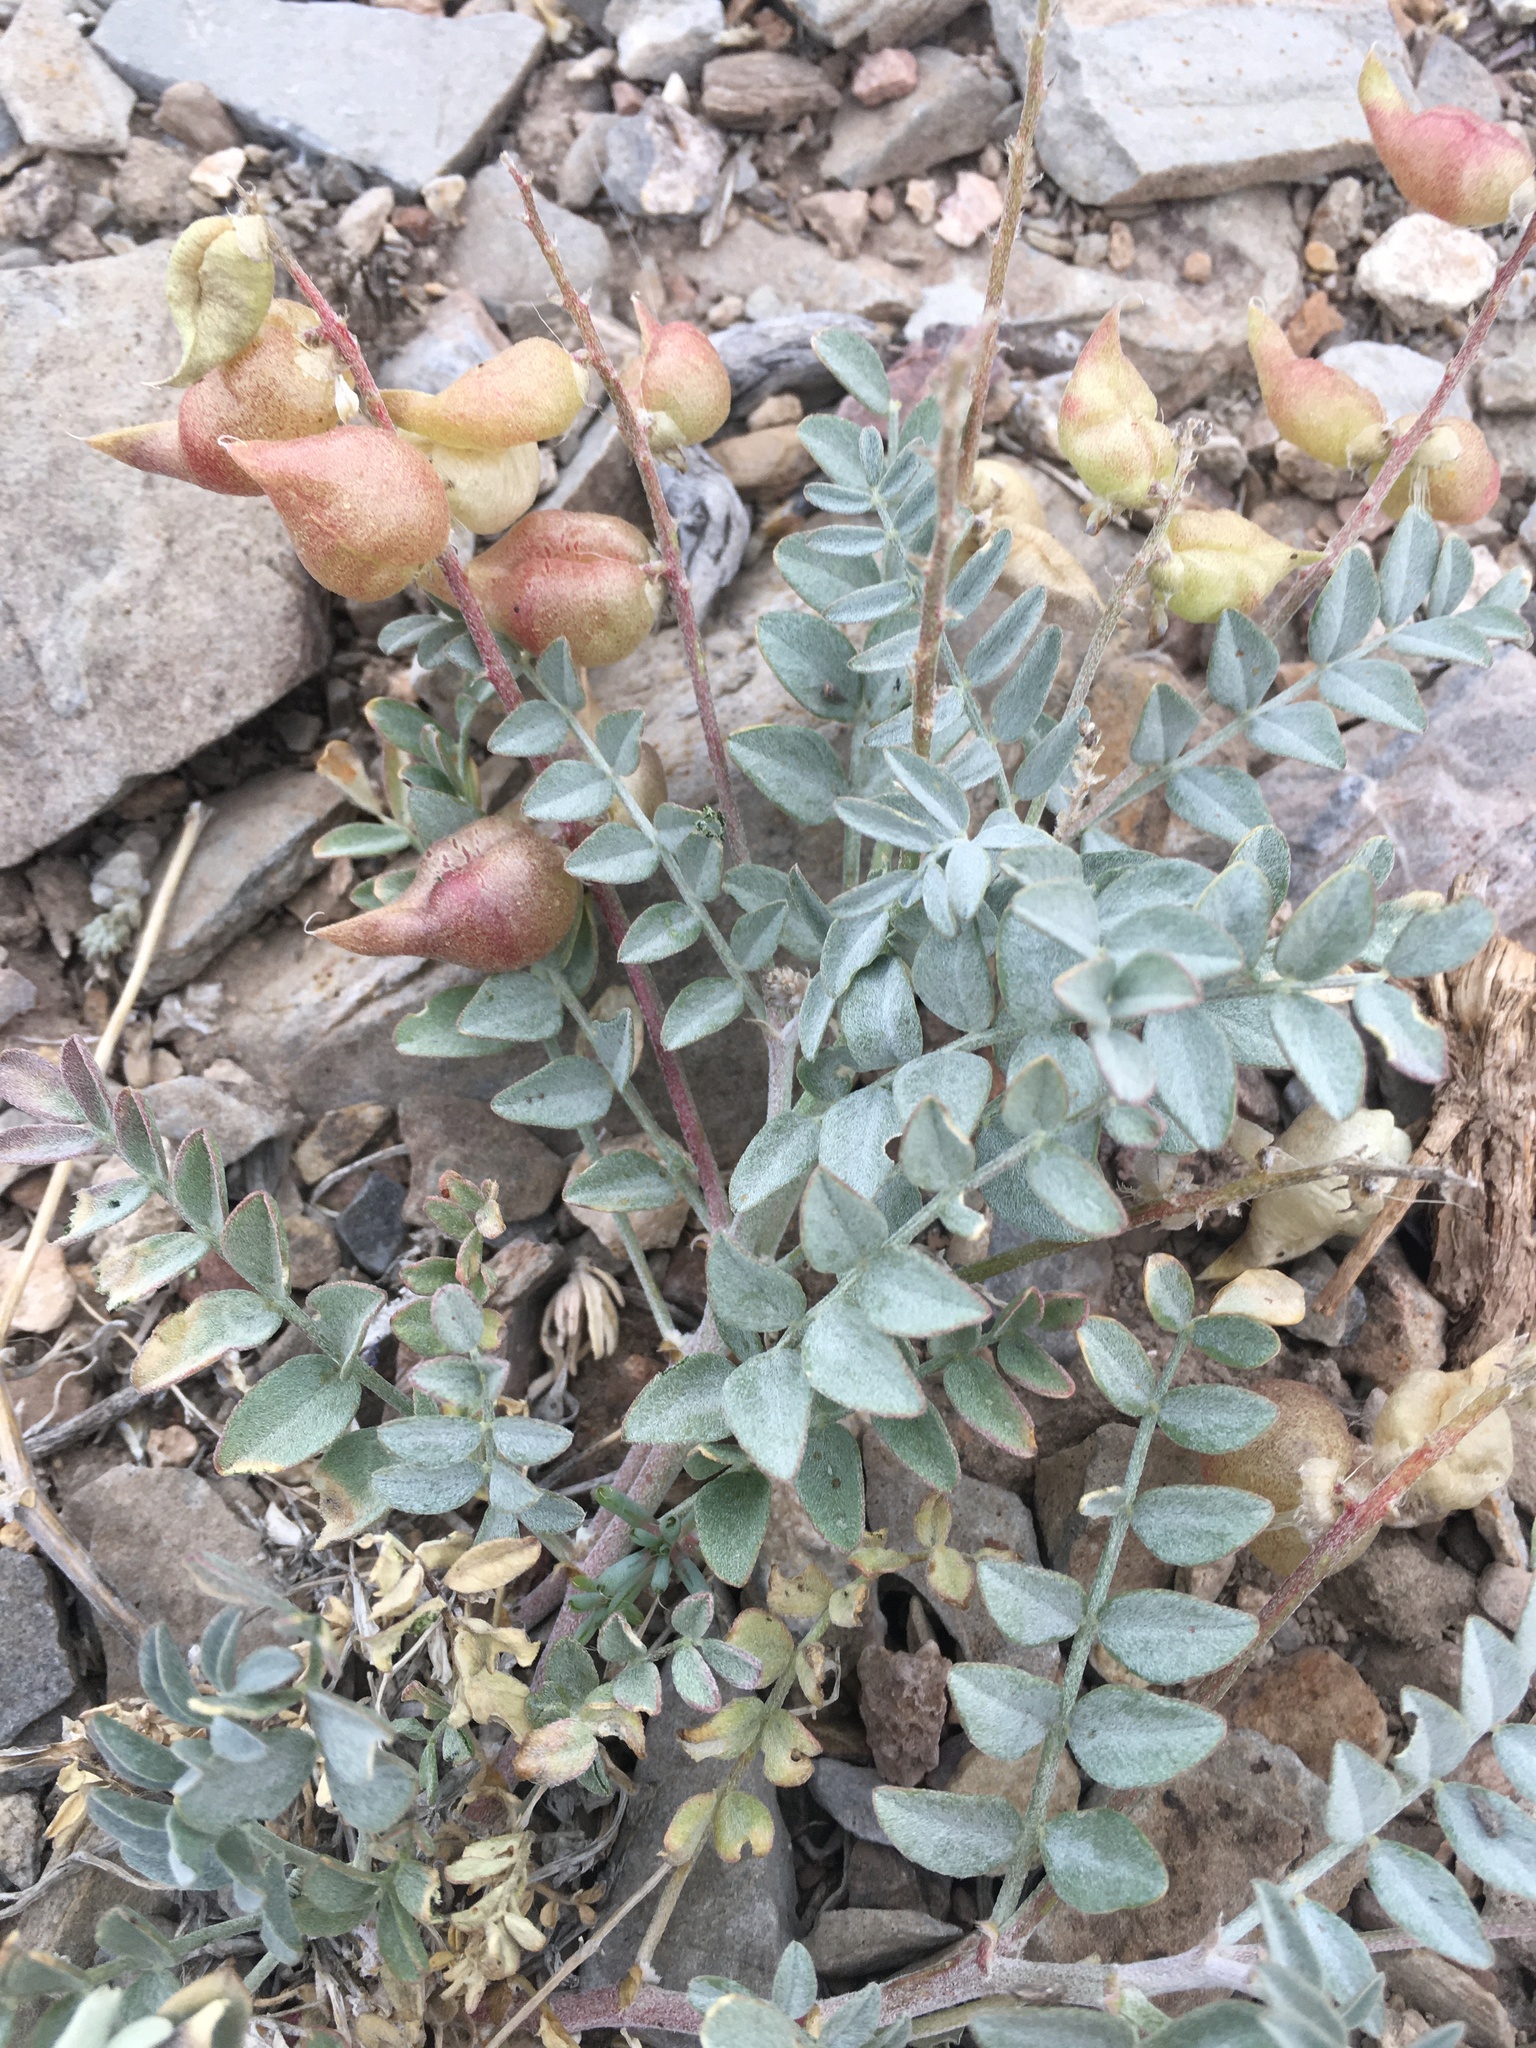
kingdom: Plantae
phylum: Tracheophyta
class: Magnoliopsida
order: Fabales
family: Fabaceae
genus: Astragalus
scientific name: Astragalus lentiginosus
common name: Freckled milkvetch
